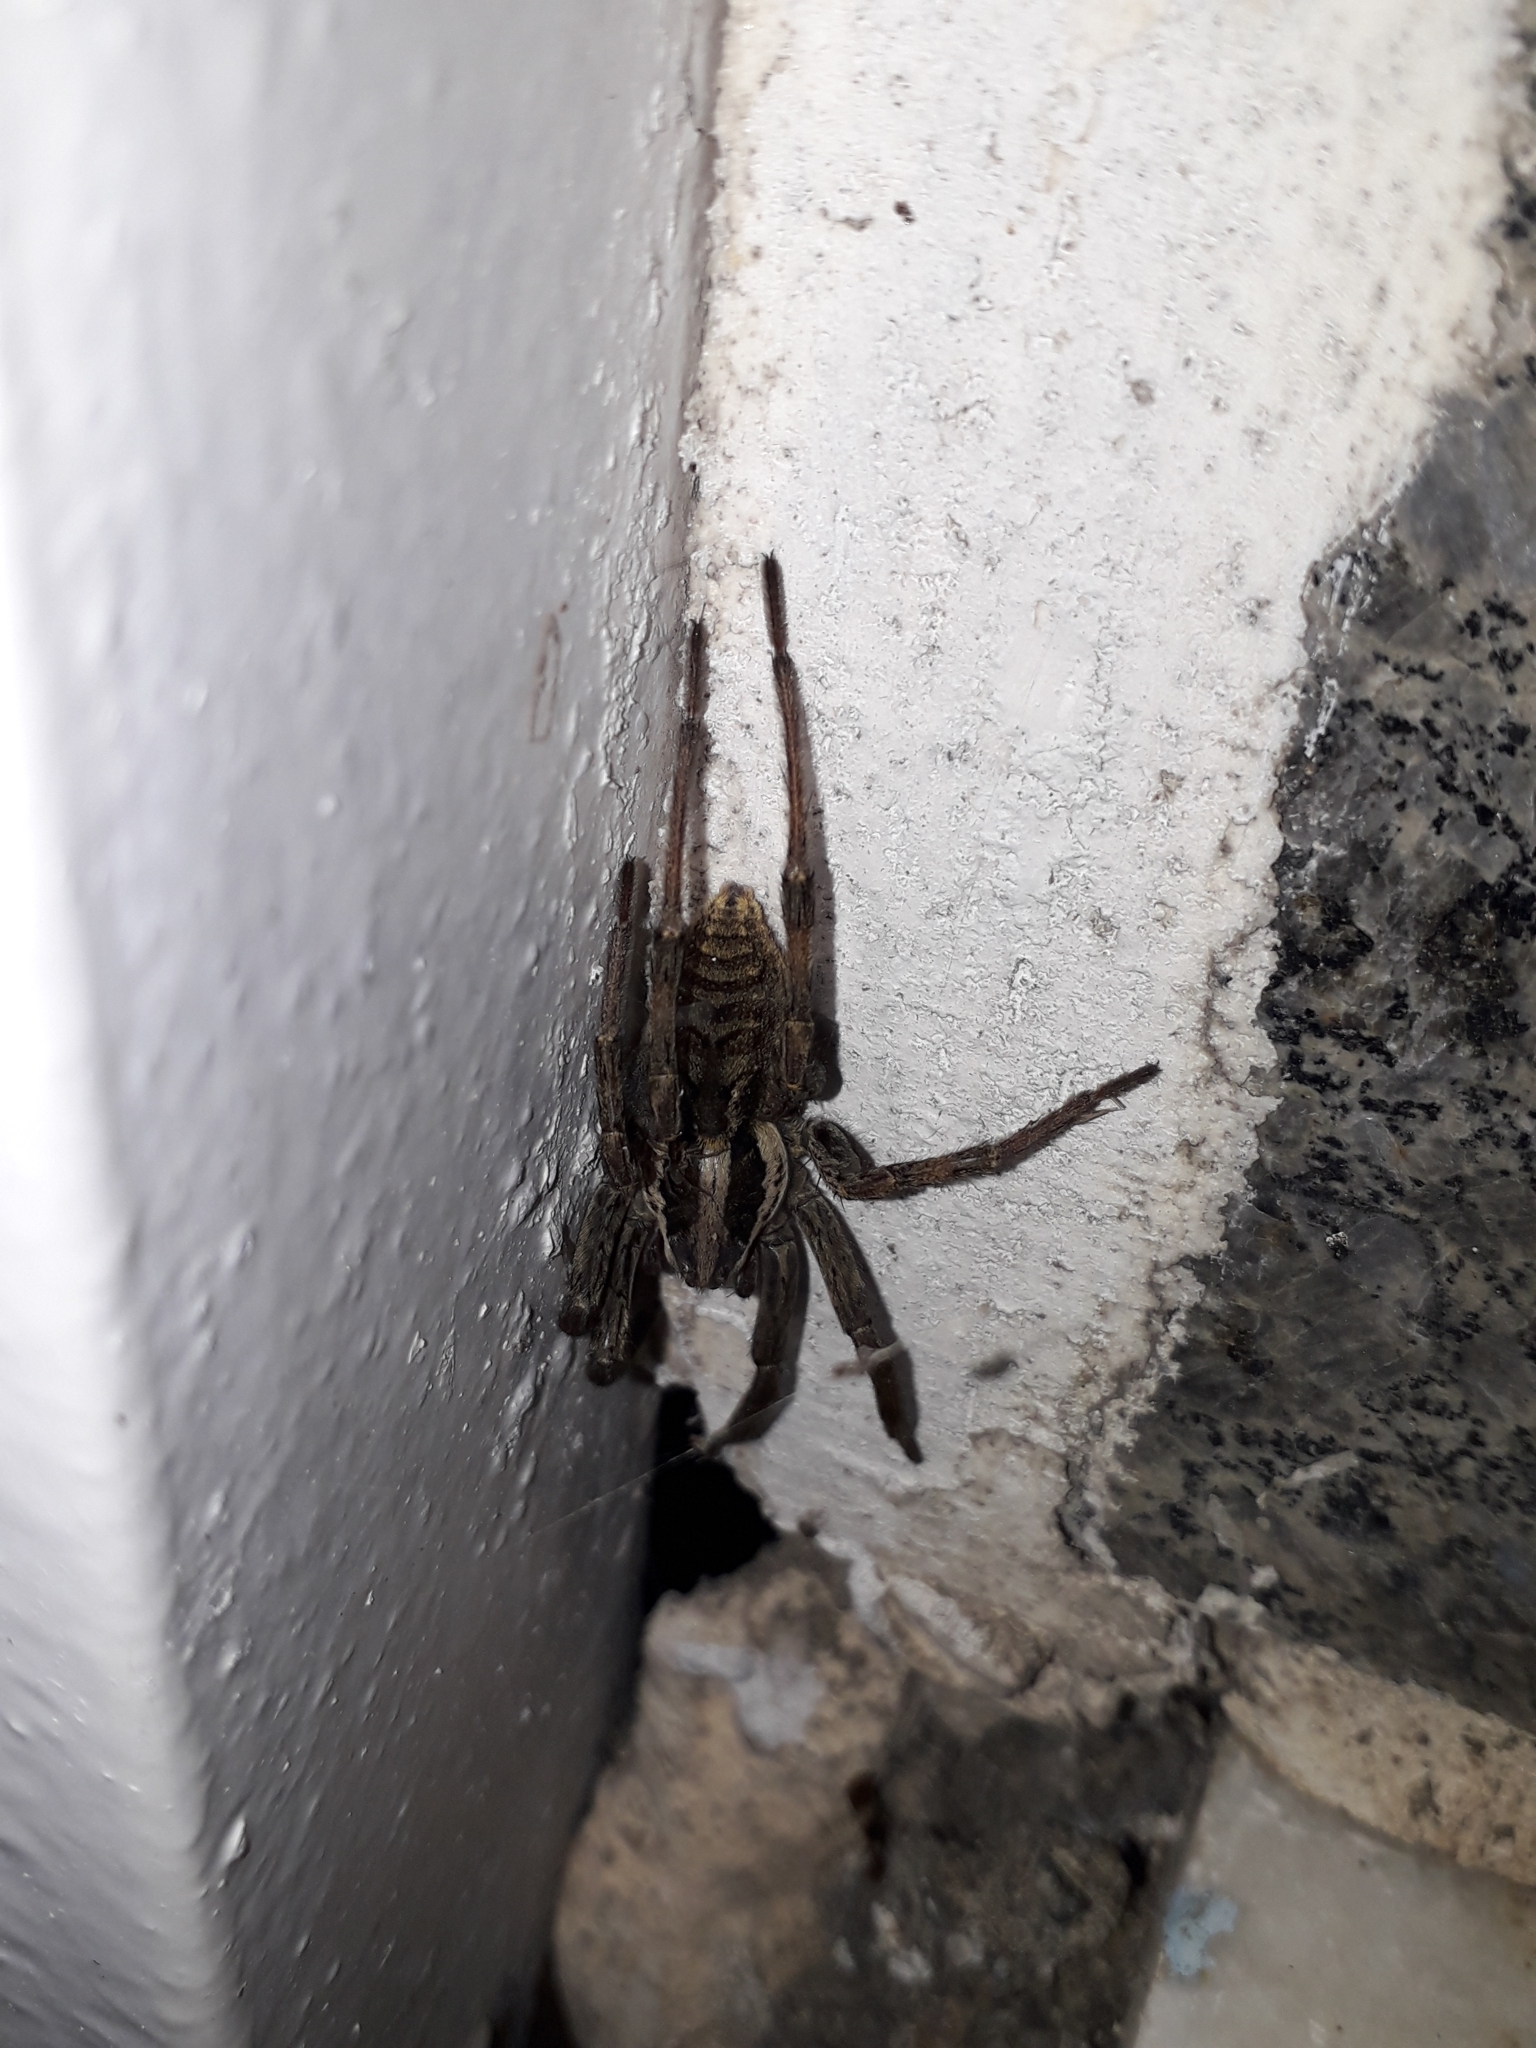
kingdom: Animalia
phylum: Arthropoda
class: Arachnida
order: Araneae
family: Lycosidae
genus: Lycosa
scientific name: Lycosa praegrandis
